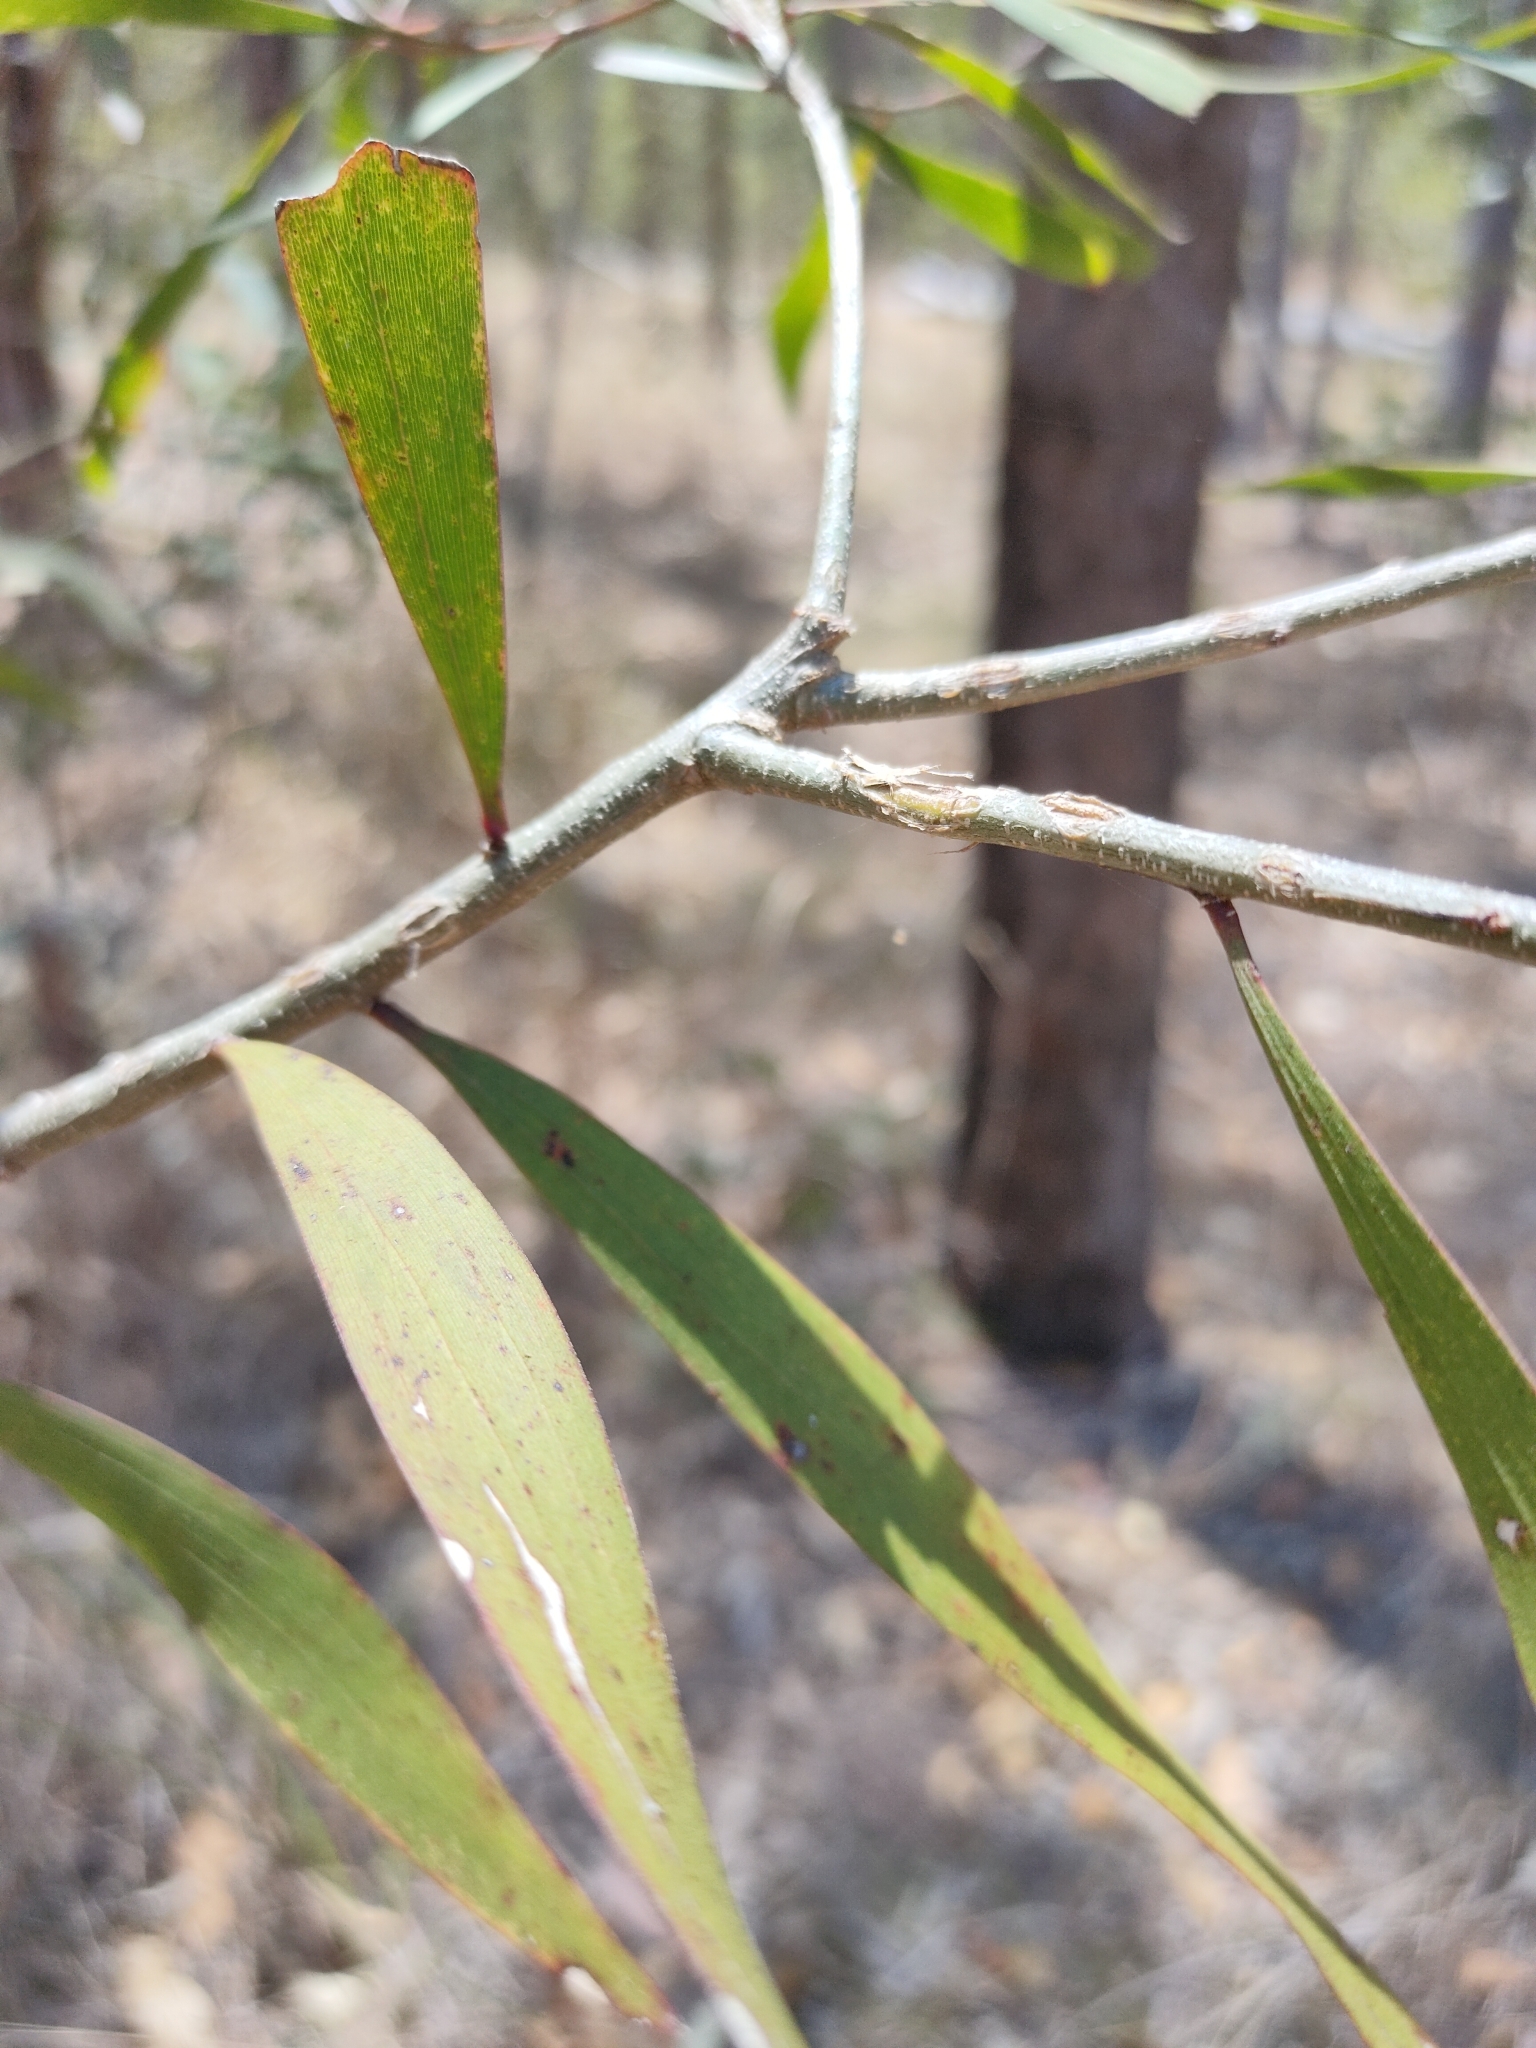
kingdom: Plantae
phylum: Tracheophyta
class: Magnoliopsida
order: Fabales
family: Fabaceae
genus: Acacia
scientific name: Acacia maidenii
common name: Maiden's wattle
